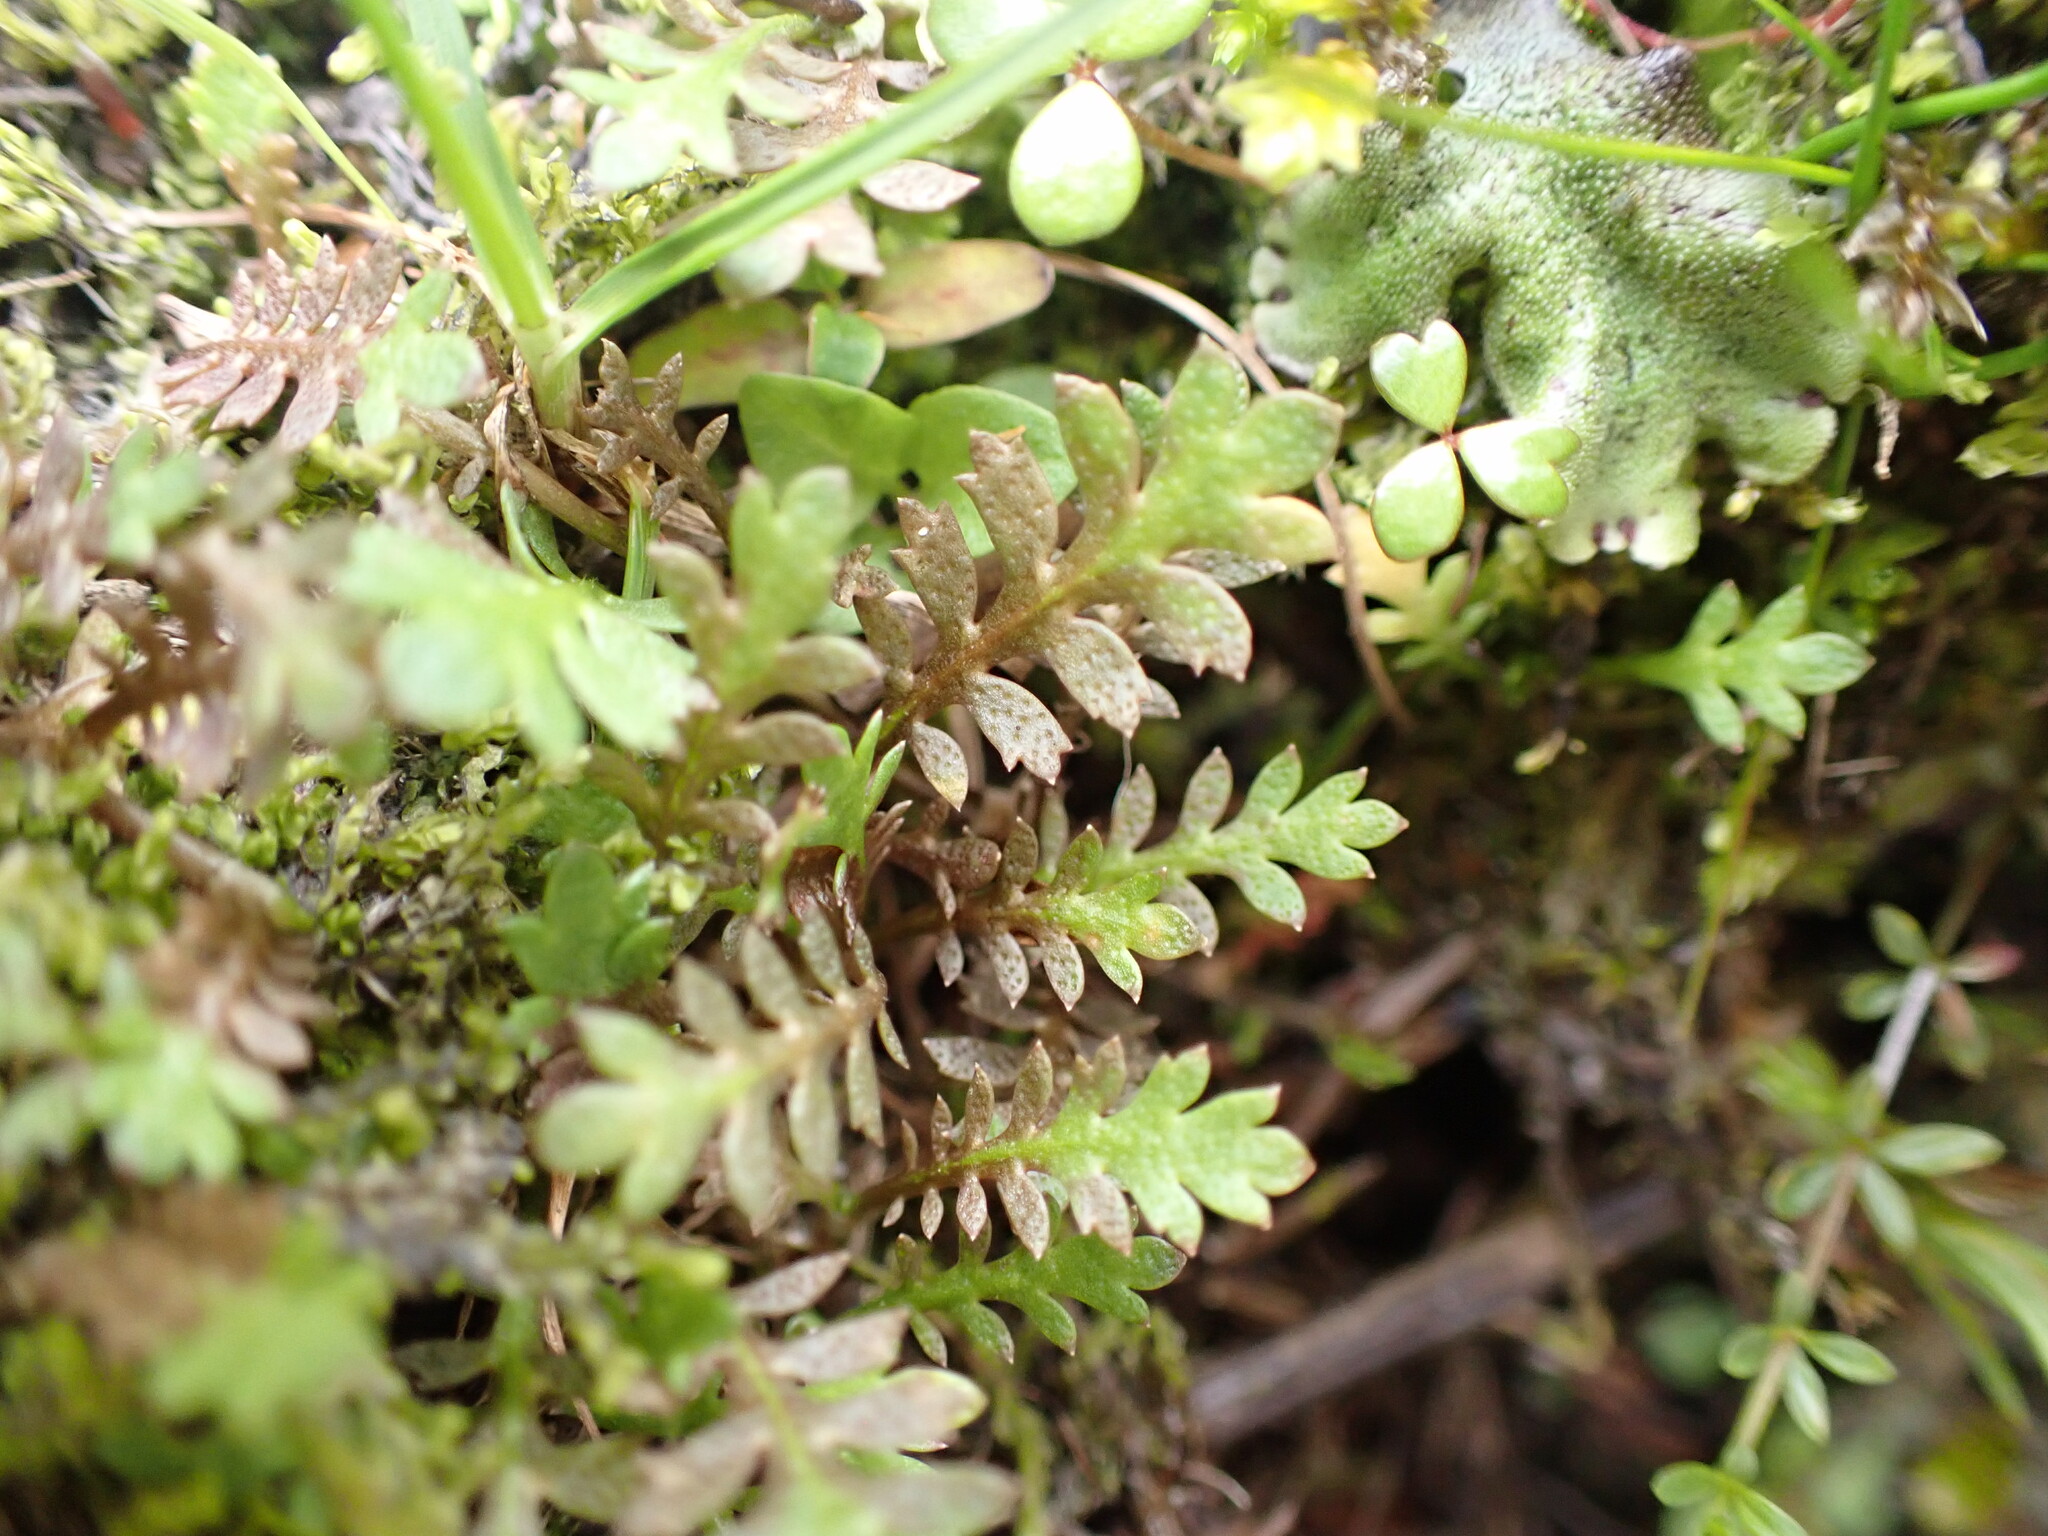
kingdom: Plantae
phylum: Tracheophyta
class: Magnoliopsida
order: Asterales
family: Asteraceae
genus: Leptinella
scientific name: Leptinella squalida
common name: New zealand brass-buttons
